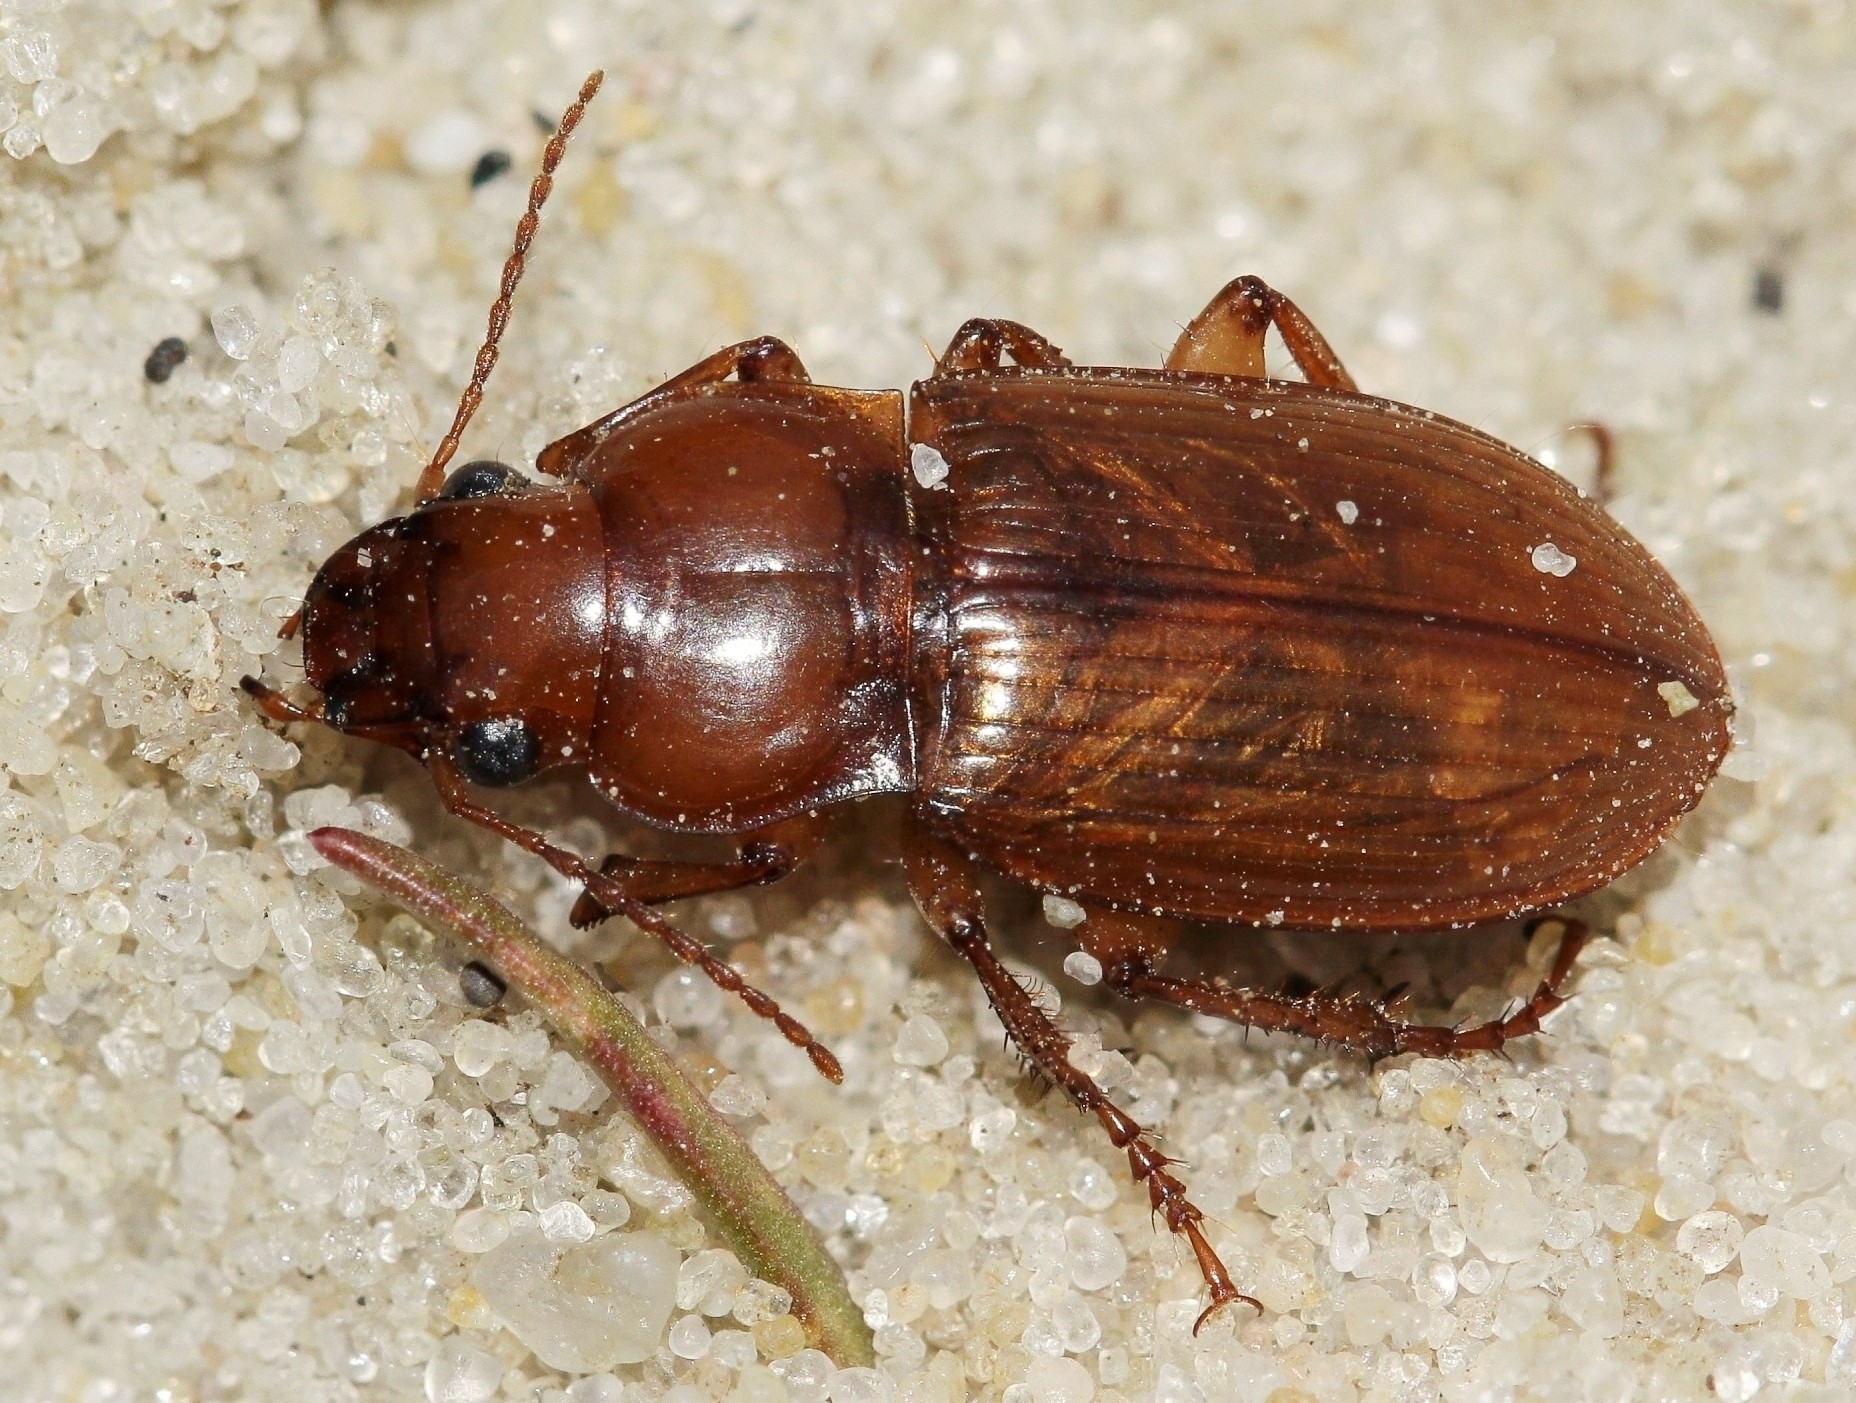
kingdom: Animalia
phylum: Arthropoda
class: Insecta
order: Coleoptera
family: Carabidae
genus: Harpalus
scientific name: Harpalus flavescens
